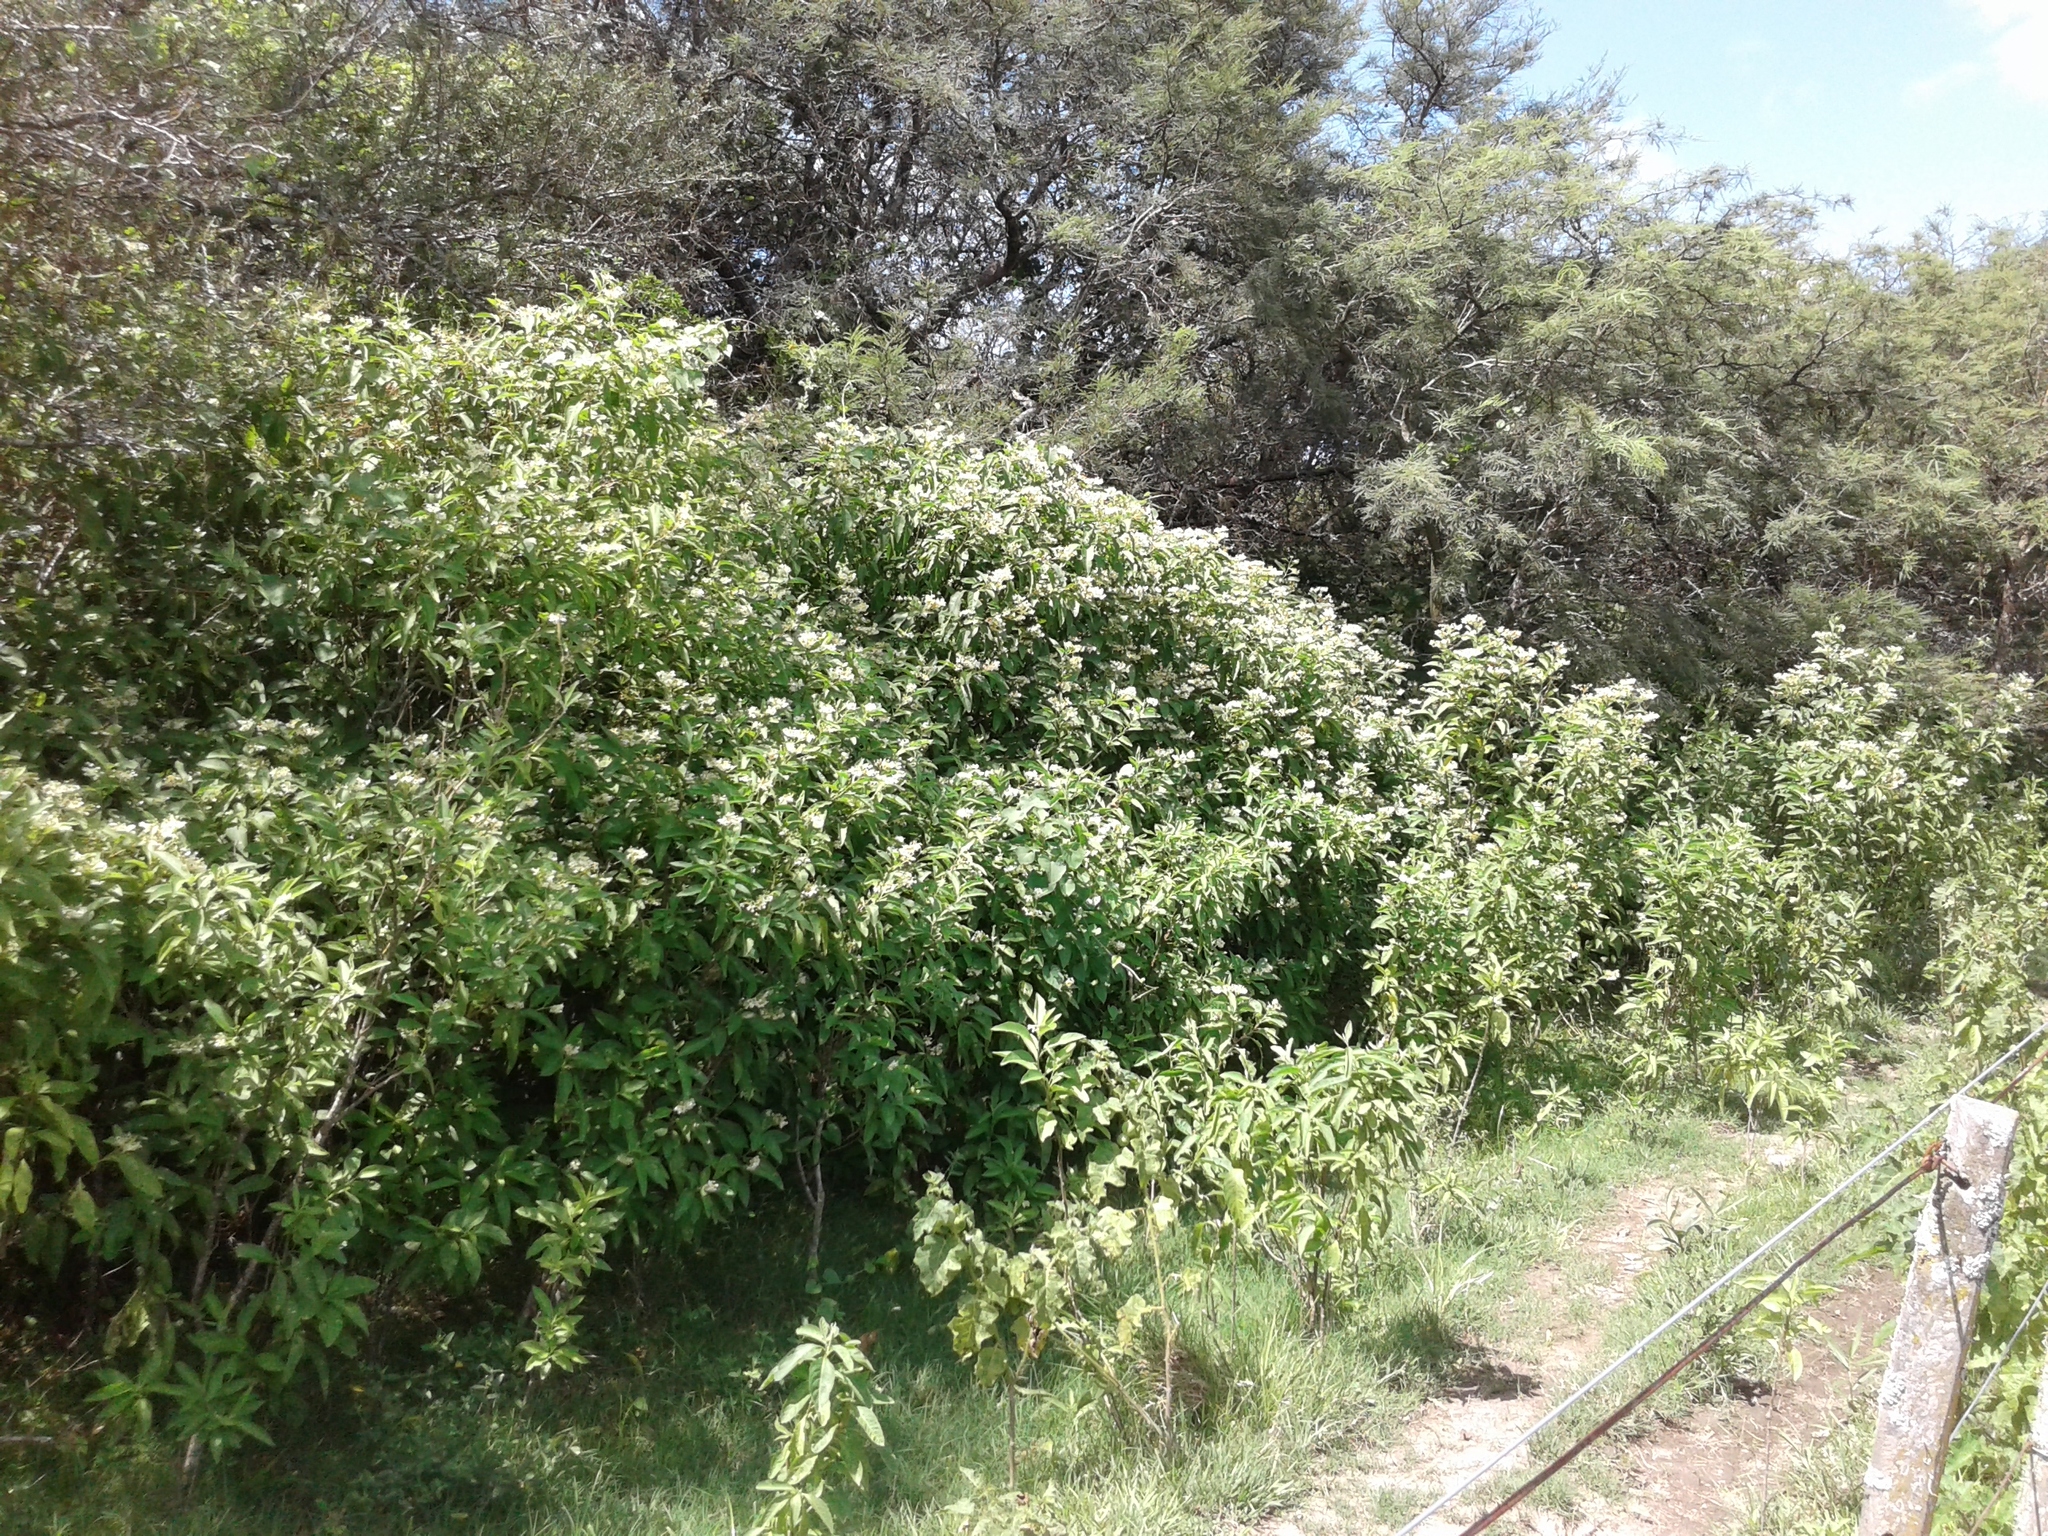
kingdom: Plantae
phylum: Tracheophyta
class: Magnoliopsida
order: Solanales
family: Solanaceae
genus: Solanum
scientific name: Solanum argentinum
